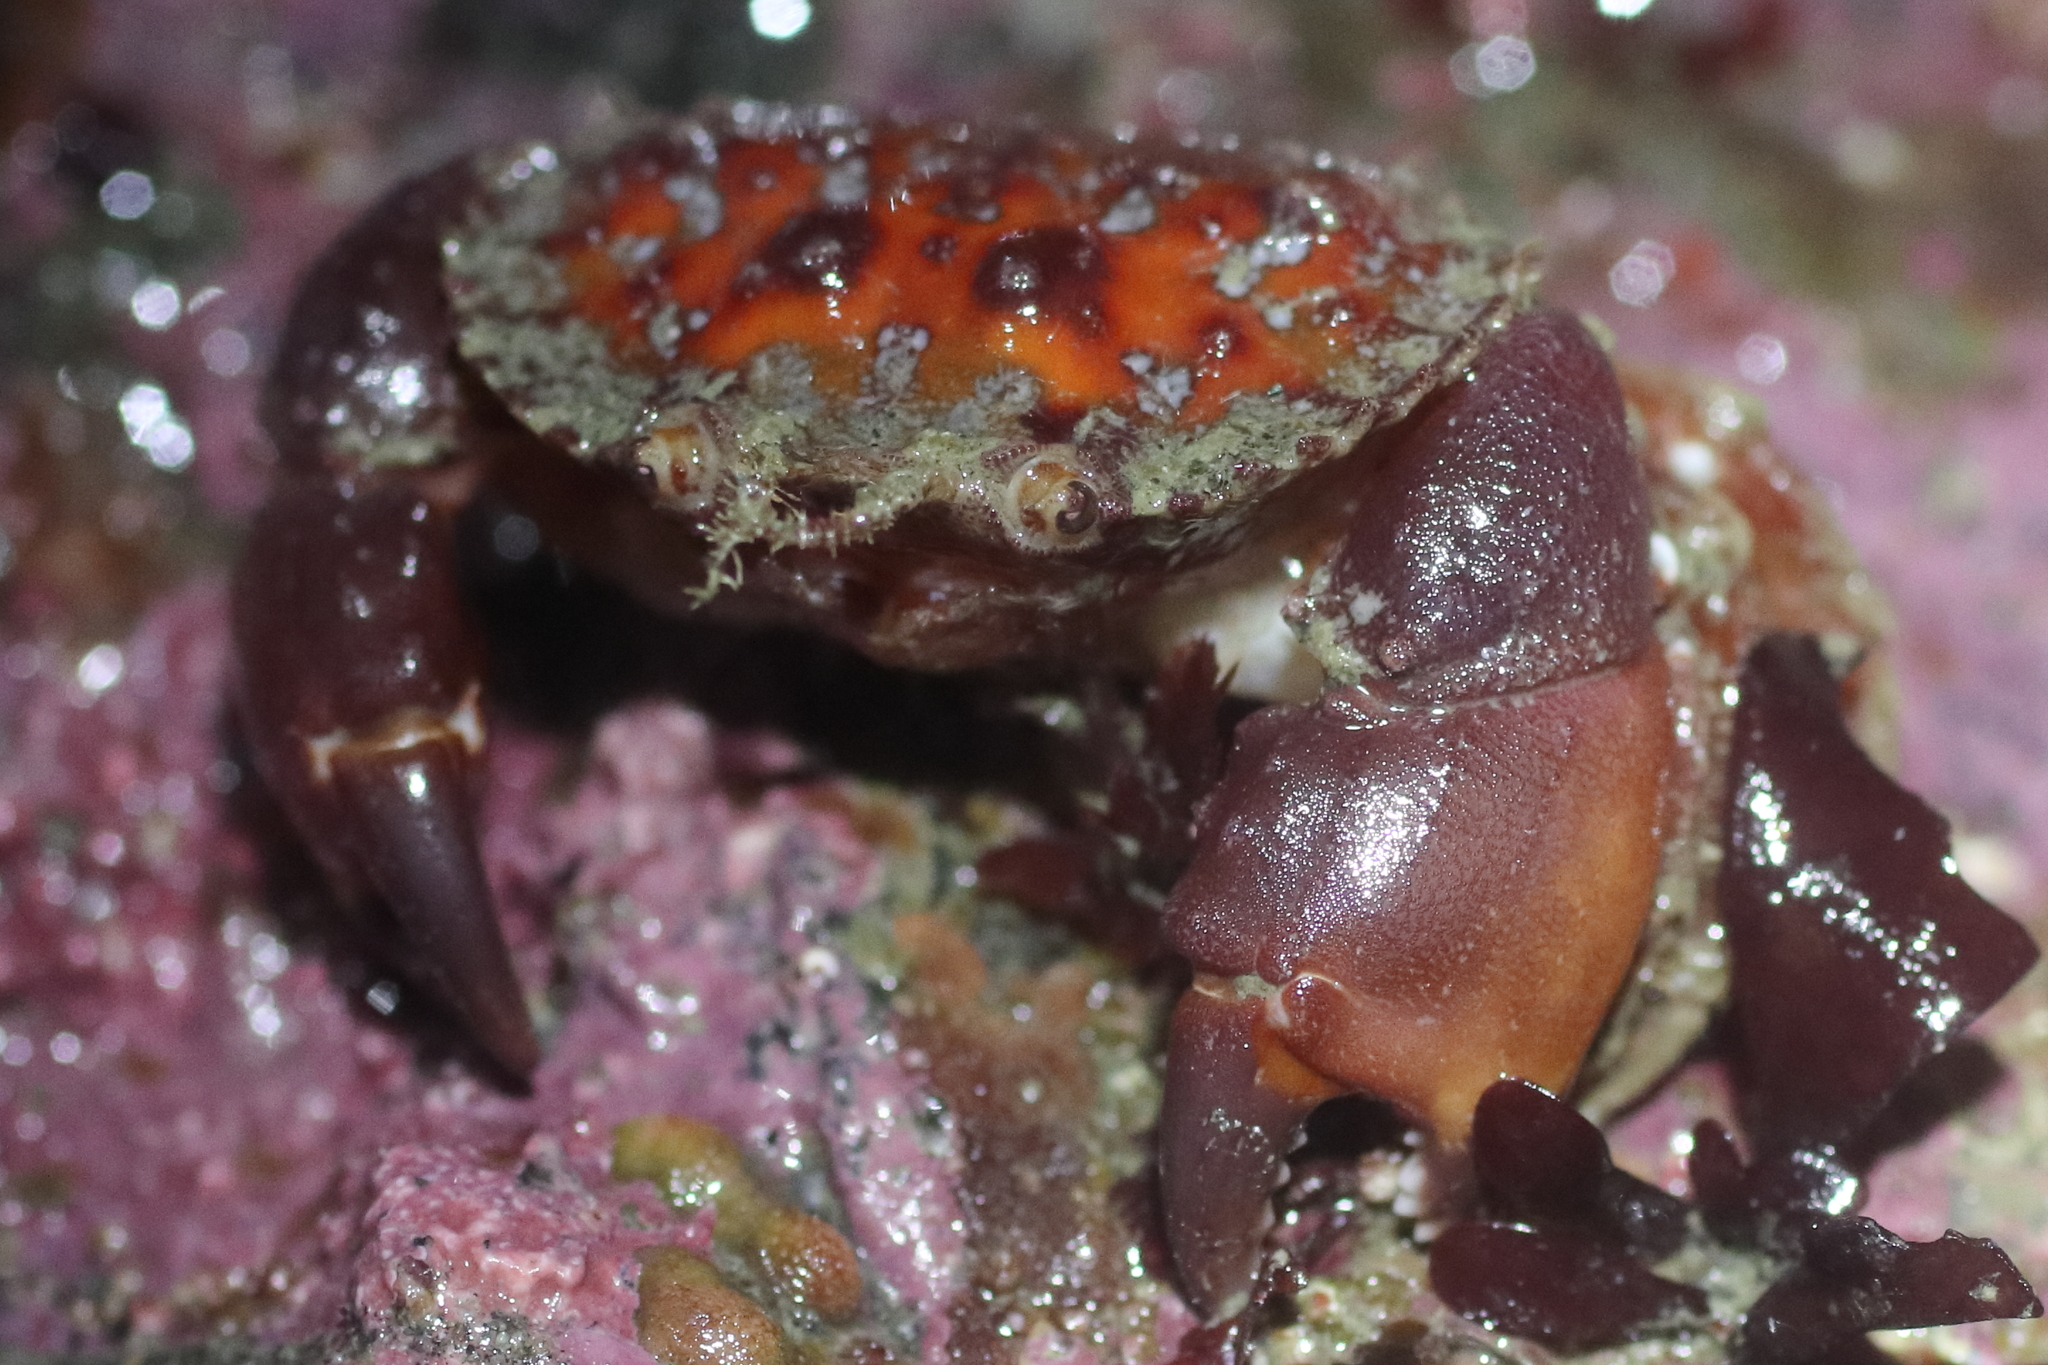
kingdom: Animalia
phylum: Arthropoda
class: Malacostraca
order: Decapoda
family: Cancridae
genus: Glebocarcinus
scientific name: Glebocarcinus oregonensis
